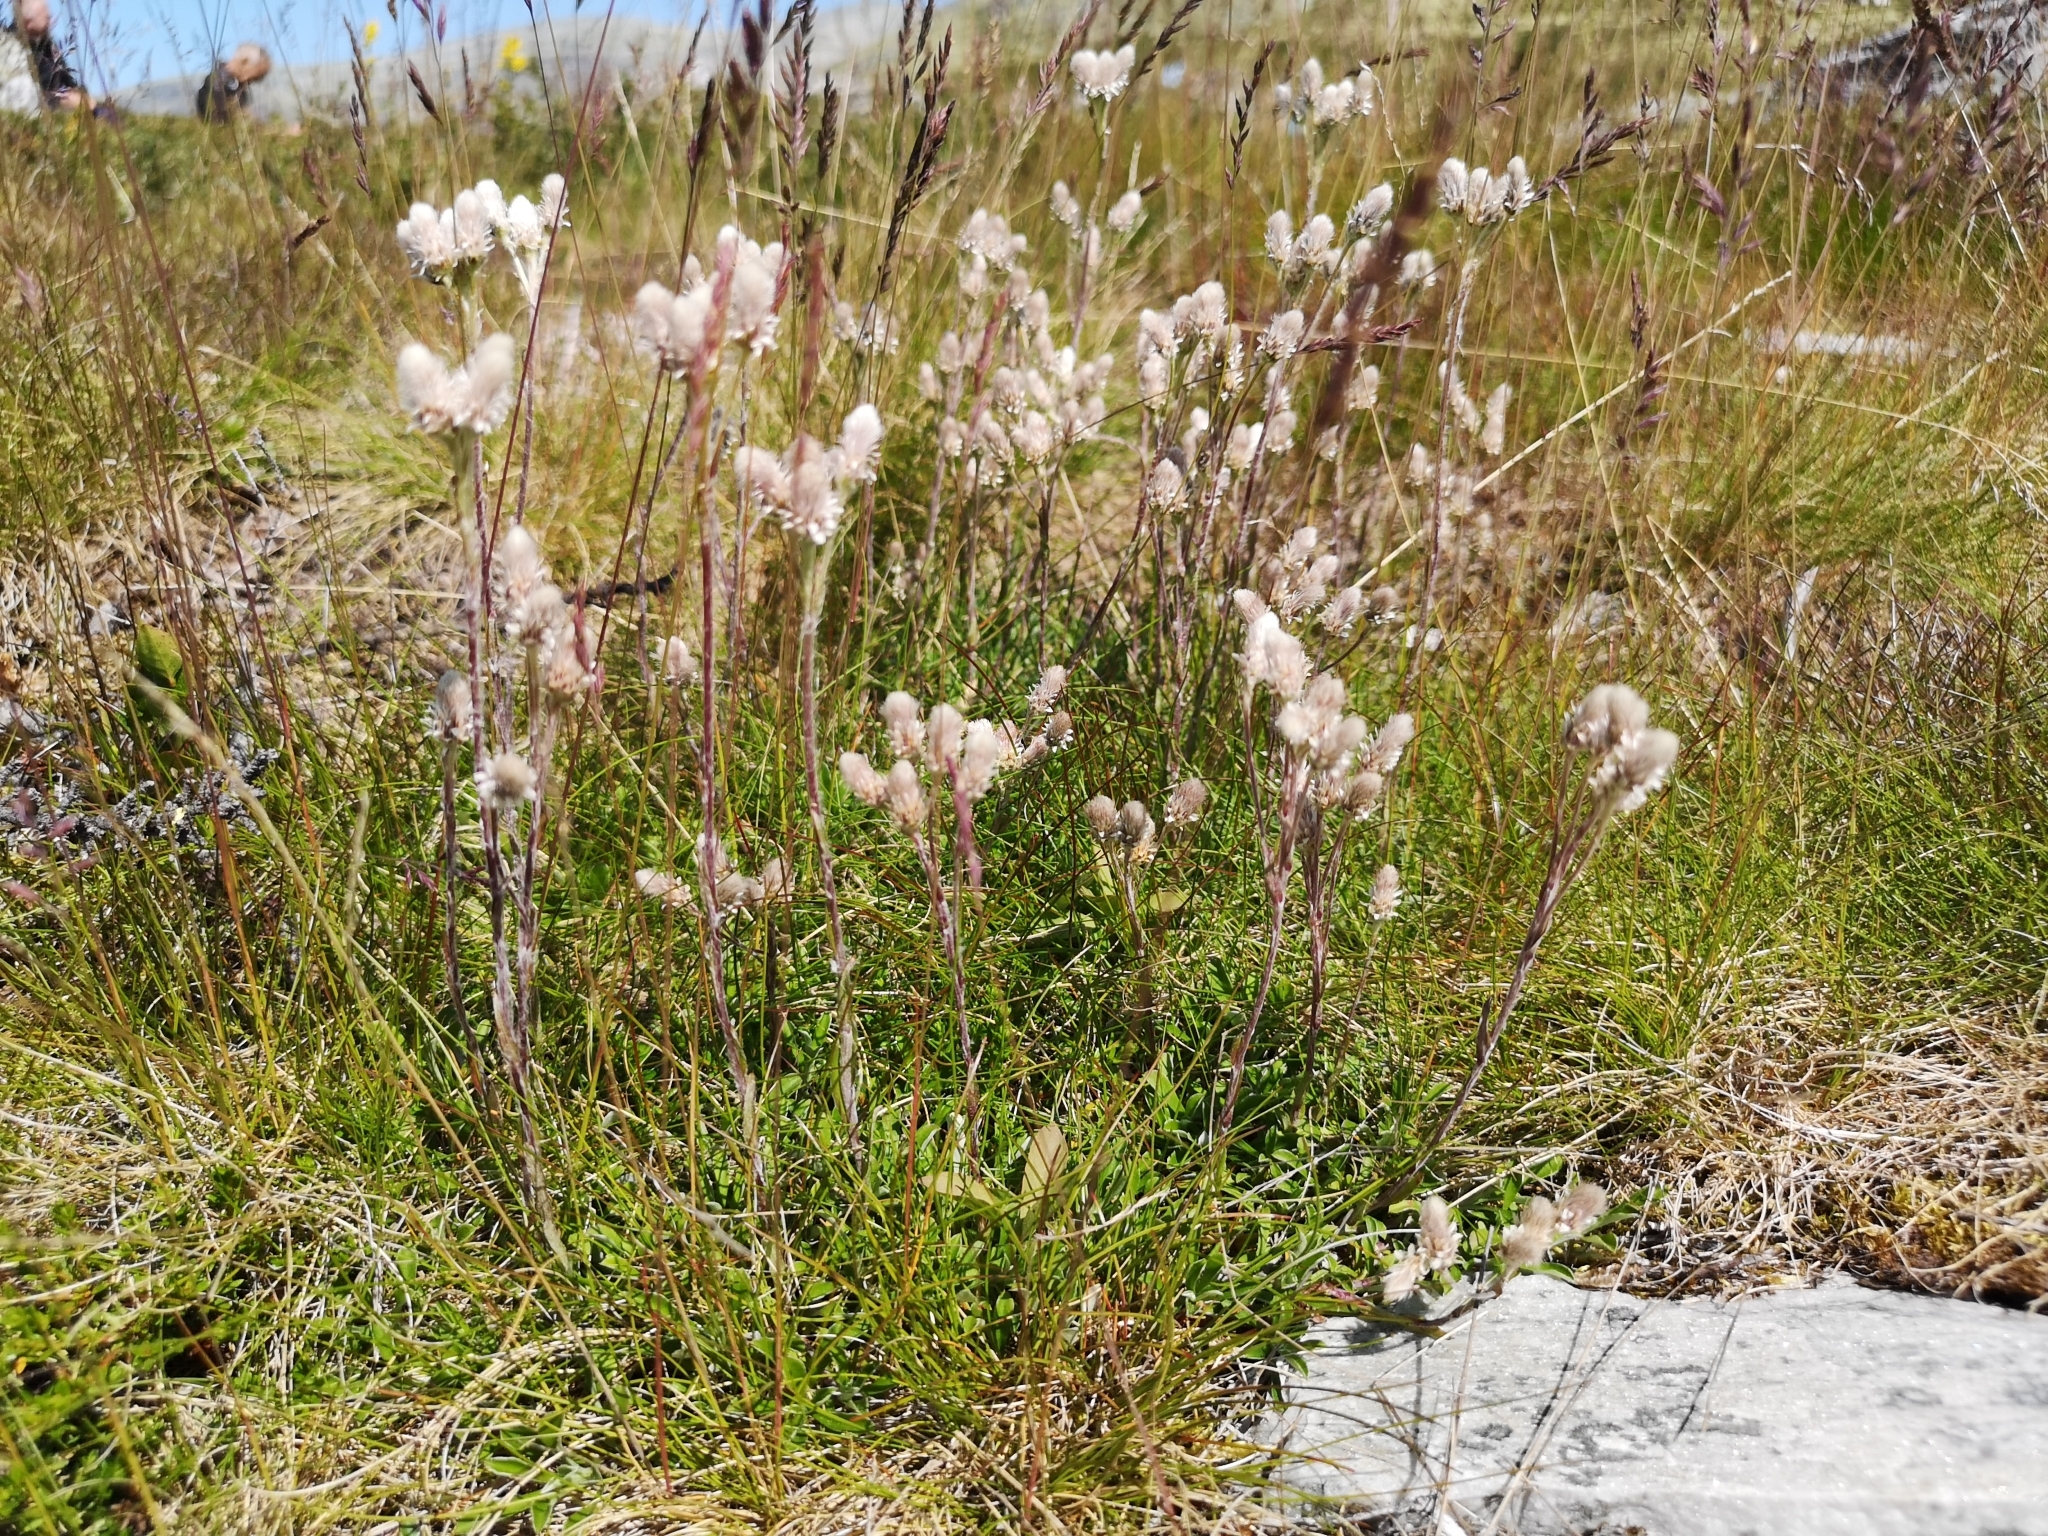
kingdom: Plantae
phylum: Tracheophyta
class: Magnoliopsida
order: Asterales
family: Asteraceae
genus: Antennaria
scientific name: Antennaria dioica
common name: Mountain everlasting
